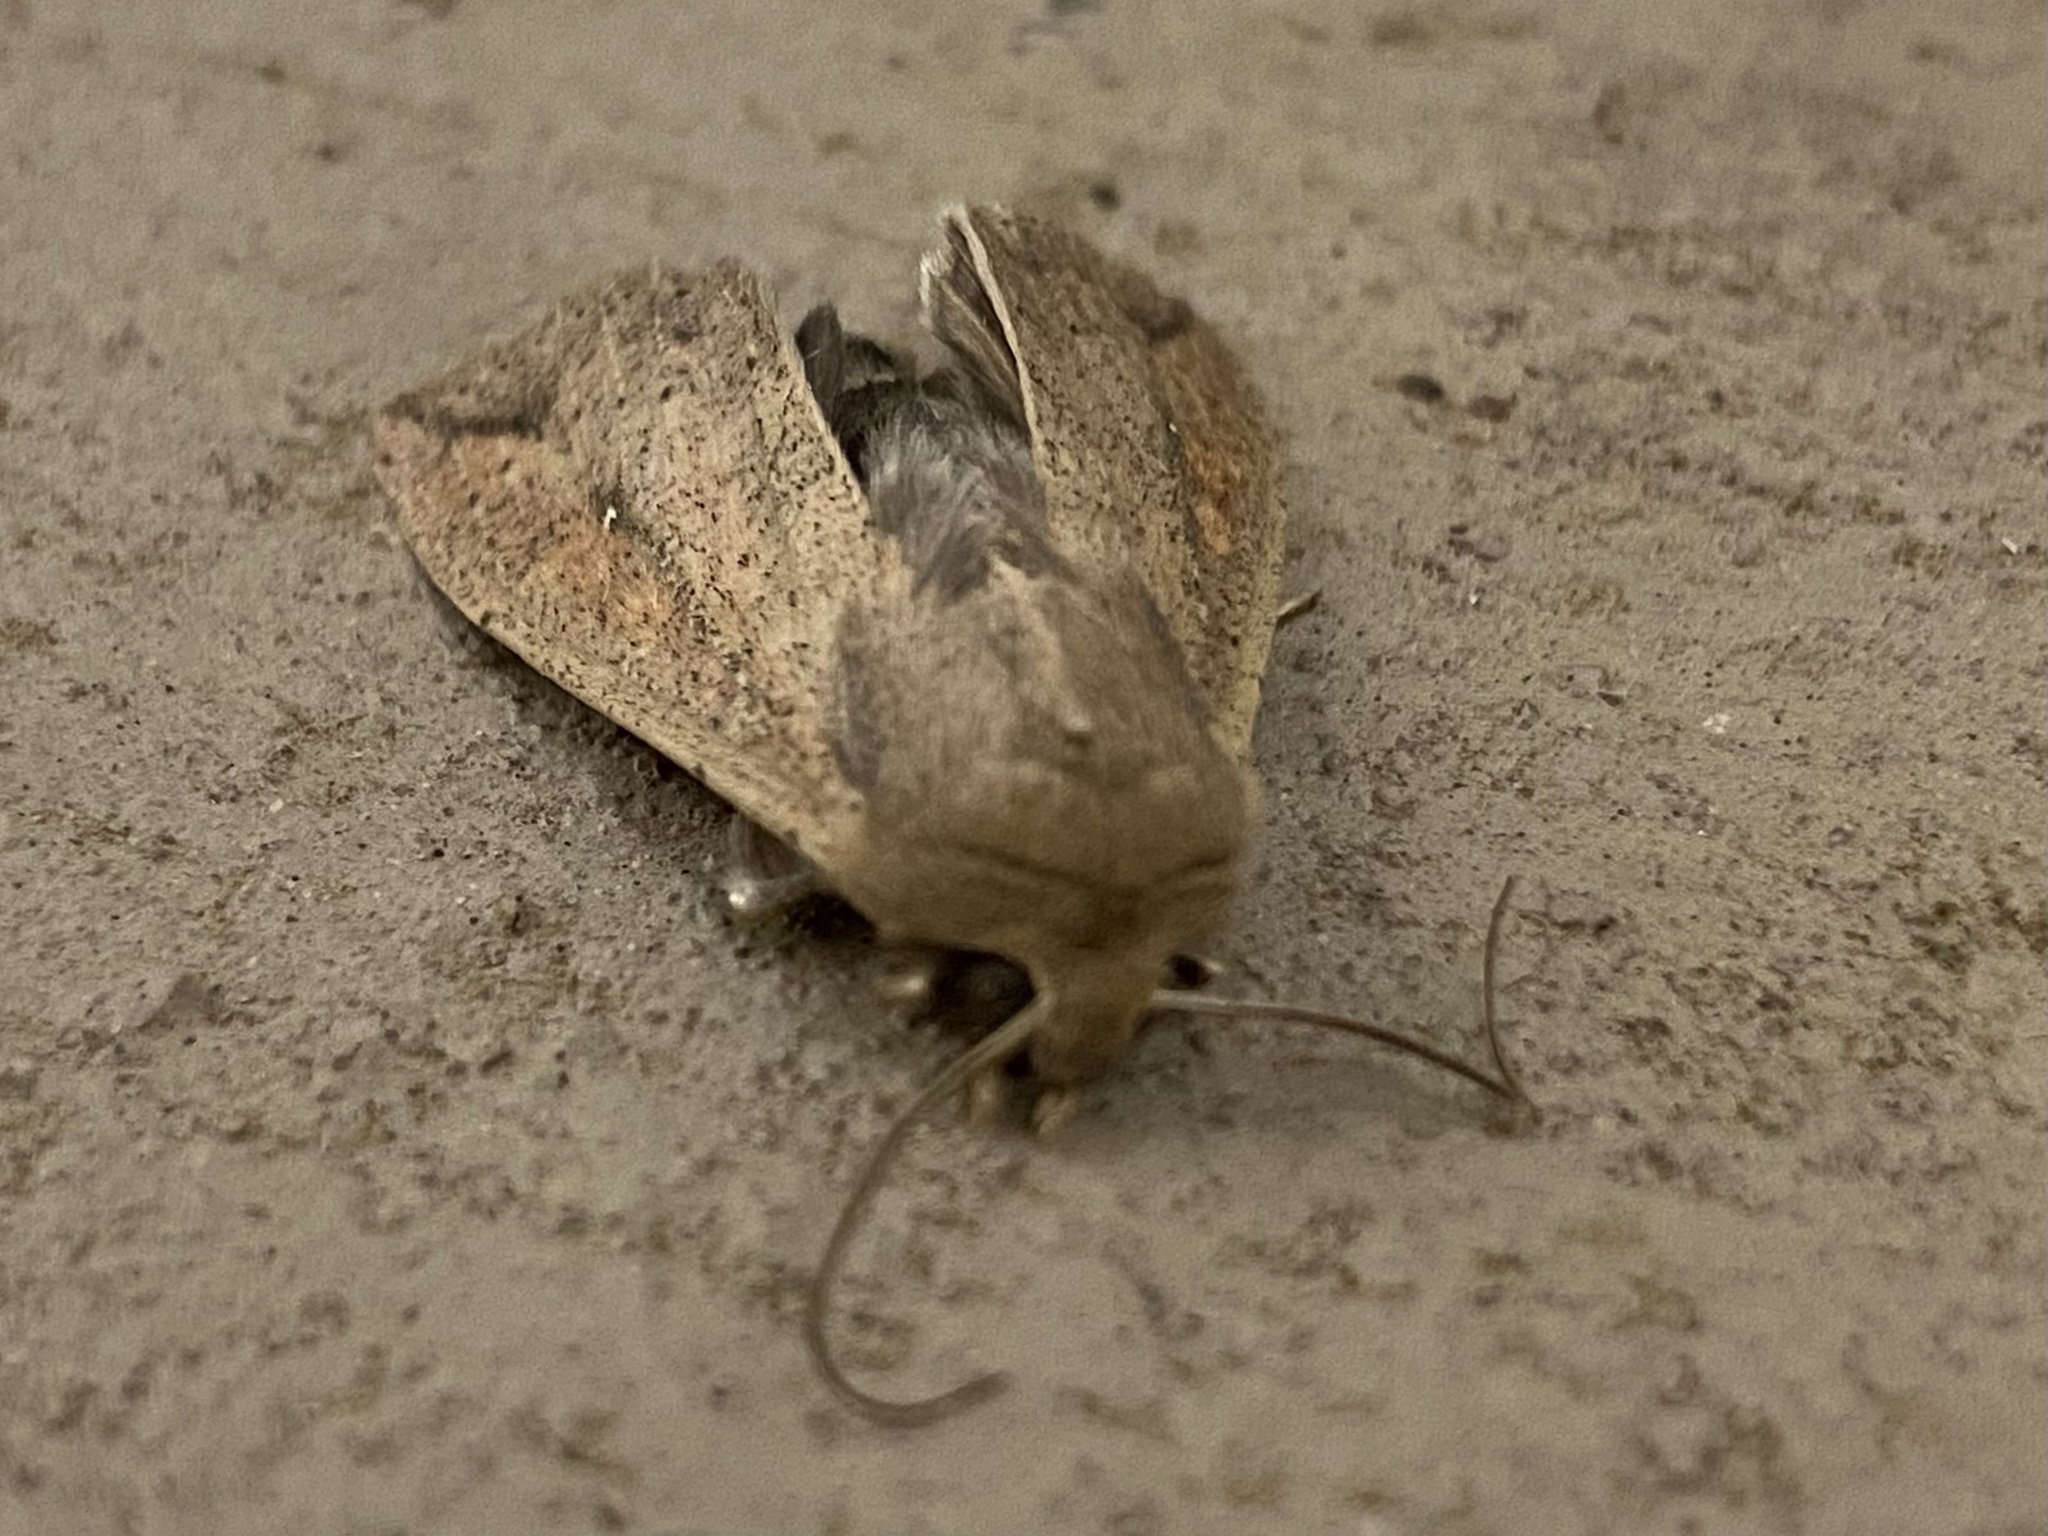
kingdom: Animalia
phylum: Arthropoda
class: Insecta
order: Lepidoptera
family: Noctuidae
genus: Mythimna
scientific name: Mythimna unipuncta
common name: White-speck
